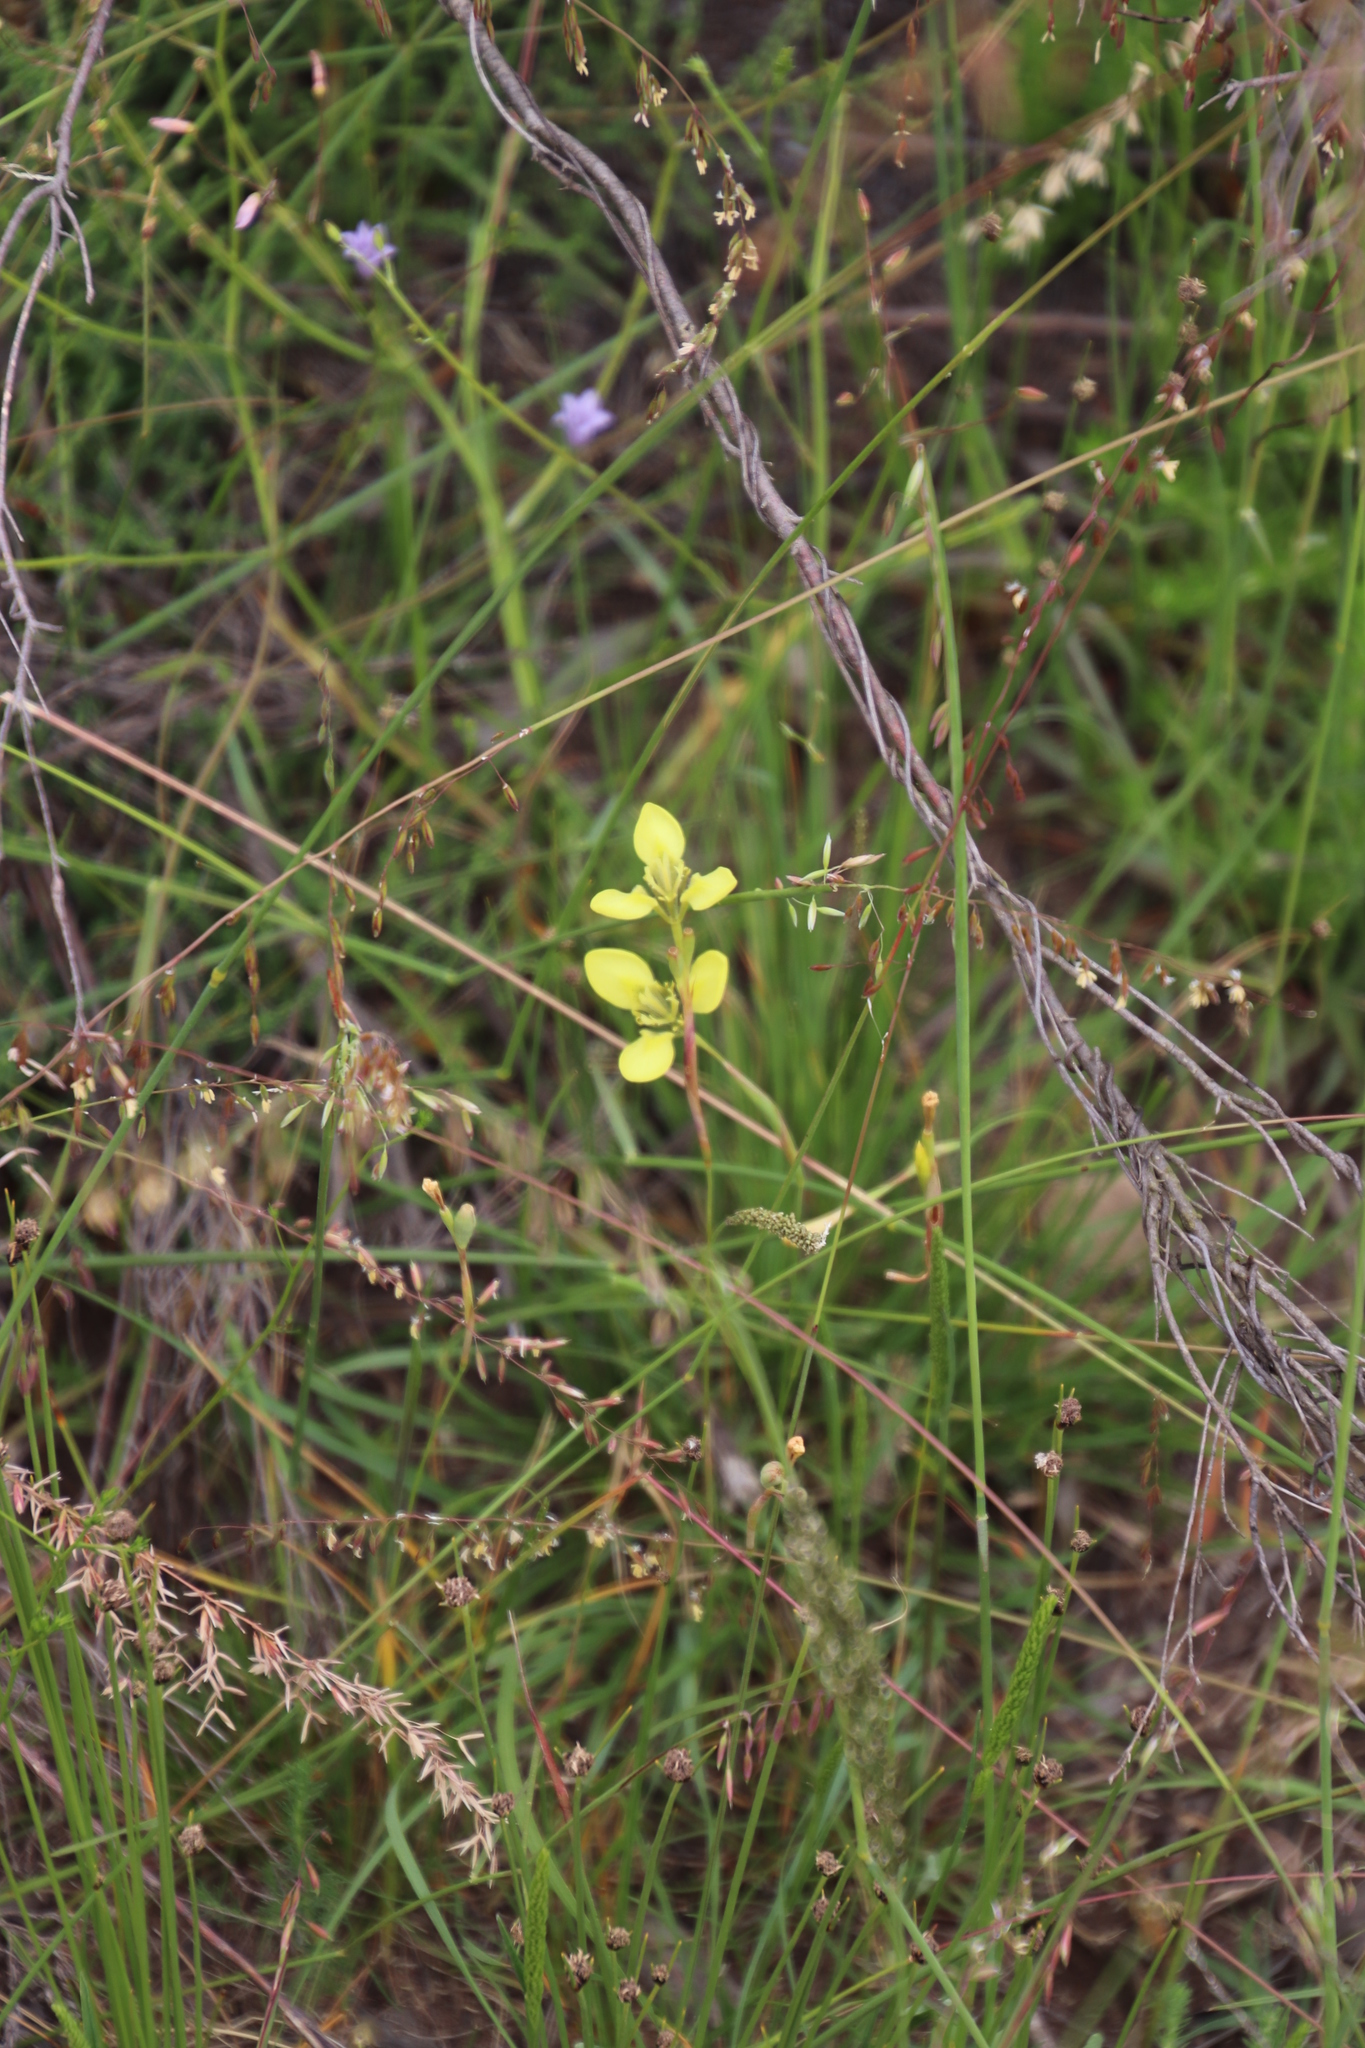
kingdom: Plantae
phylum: Tracheophyta
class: Liliopsida
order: Asparagales
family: Iridaceae
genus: Moraea
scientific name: Moraea bellendenii
